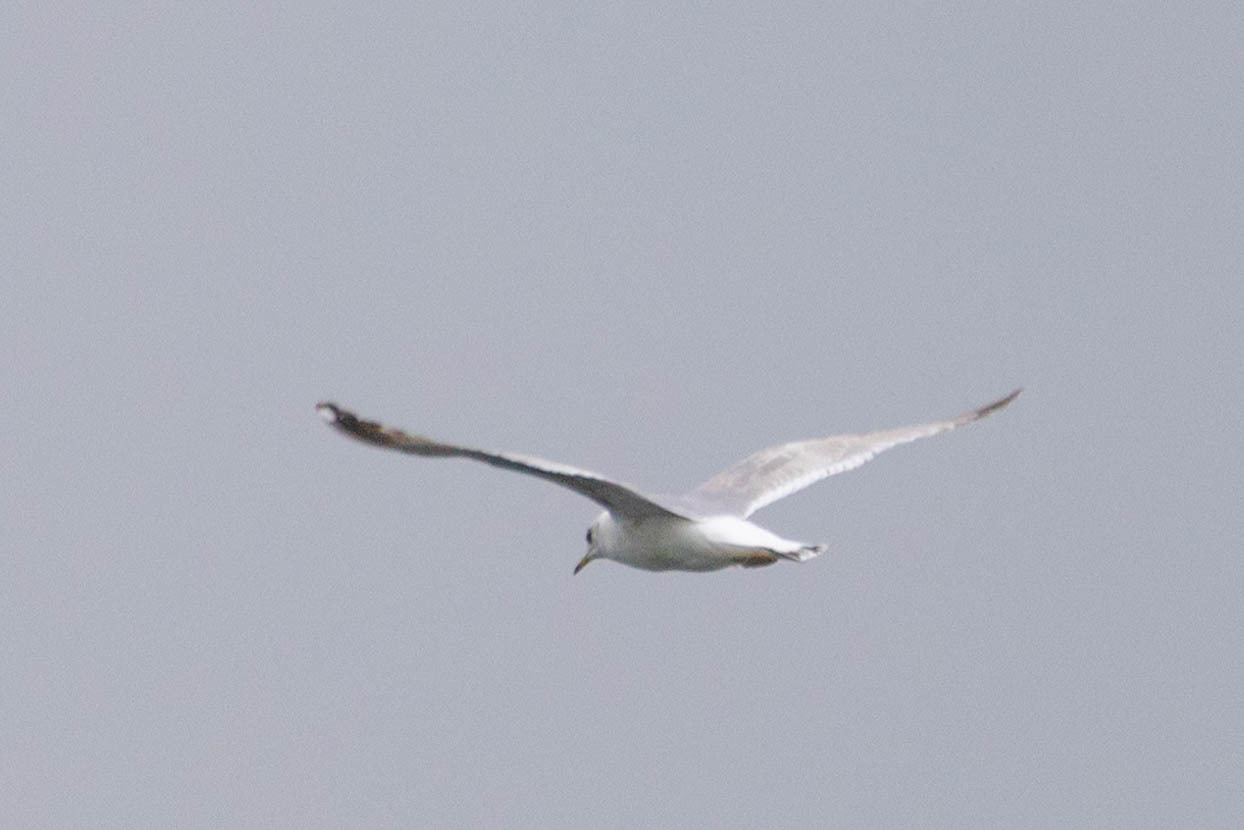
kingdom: Animalia
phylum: Chordata
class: Aves
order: Charadriiformes
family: Laridae
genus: Larus
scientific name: Larus delawarensis
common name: Ring-billed gull
